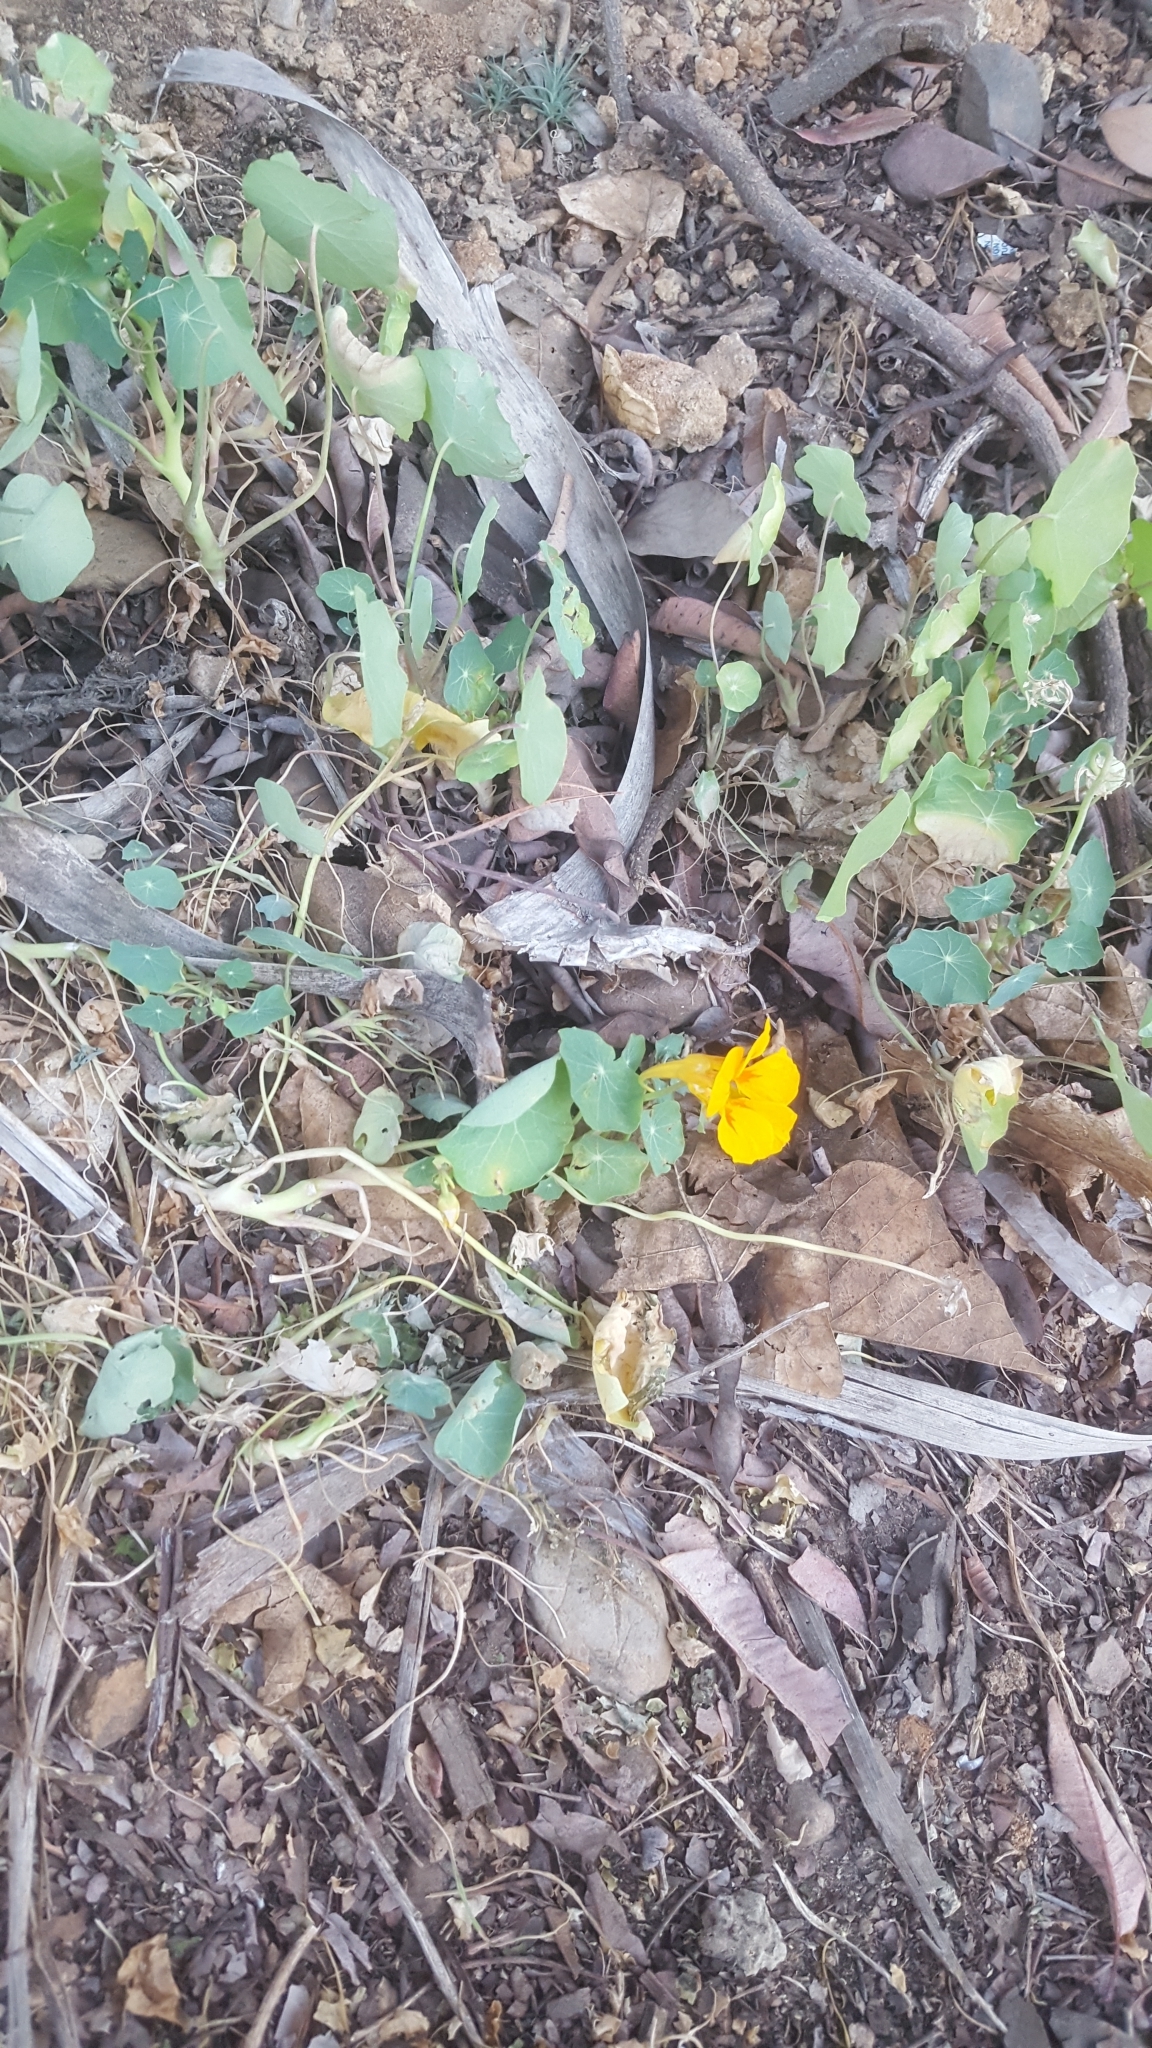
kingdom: Plantae
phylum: Tracheophyta
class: Magnoliopsida
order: Brassicales
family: Tropaeolaceae
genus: Tropaeolum
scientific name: Tropaeolum majus
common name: Nasturtium
